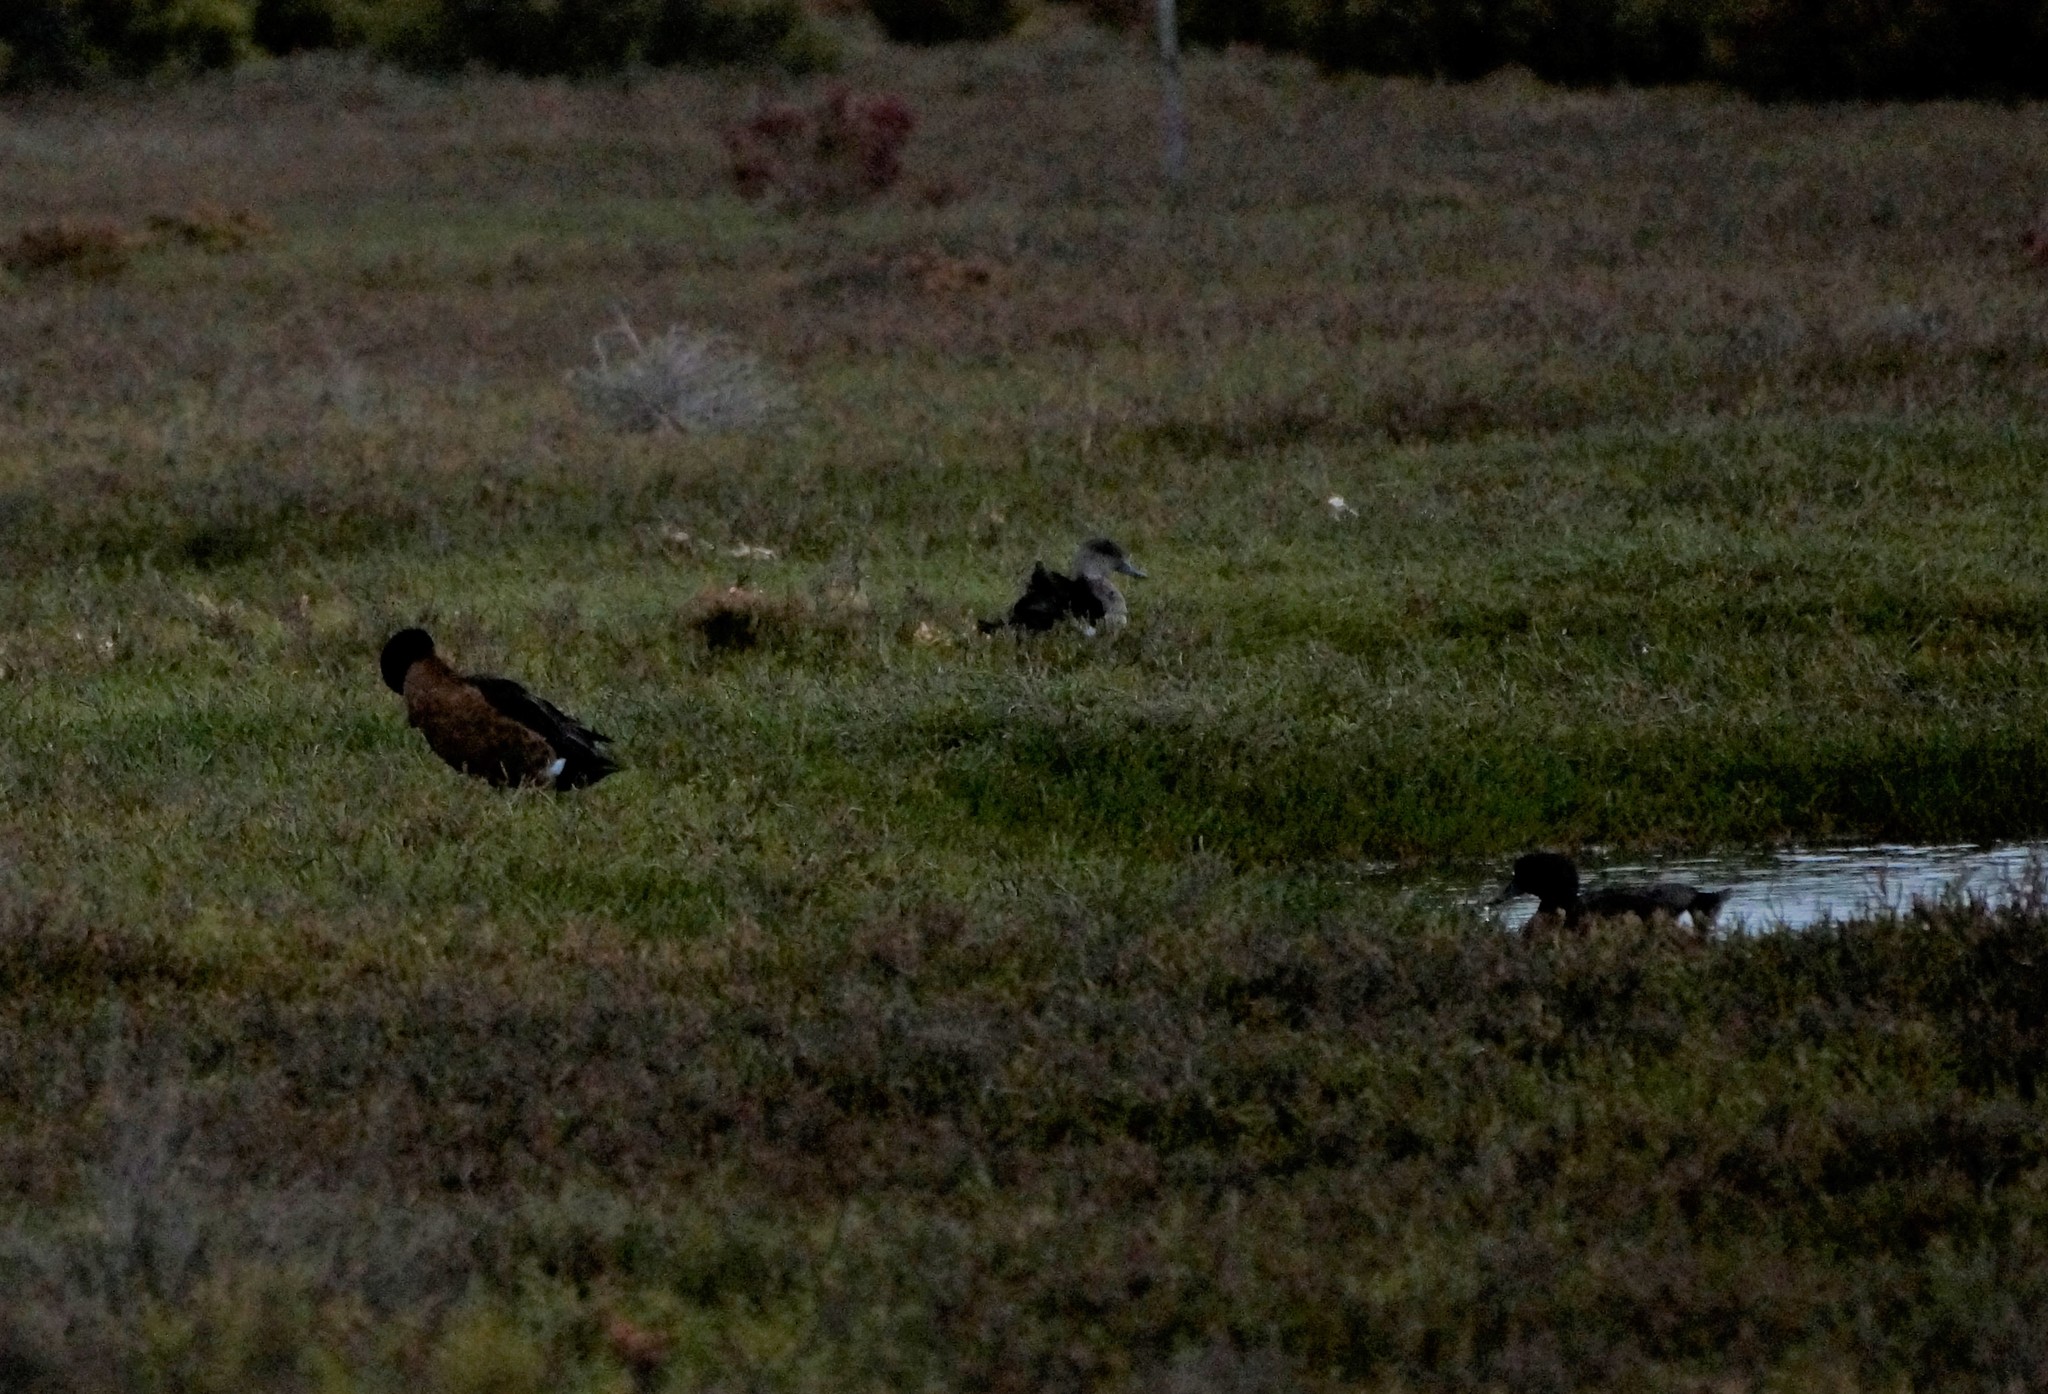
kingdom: Animalia
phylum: Chordata
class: Aves
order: Anseriformes
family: Anatidae
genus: Anas
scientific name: Anas castanea
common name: Chestnut teal
